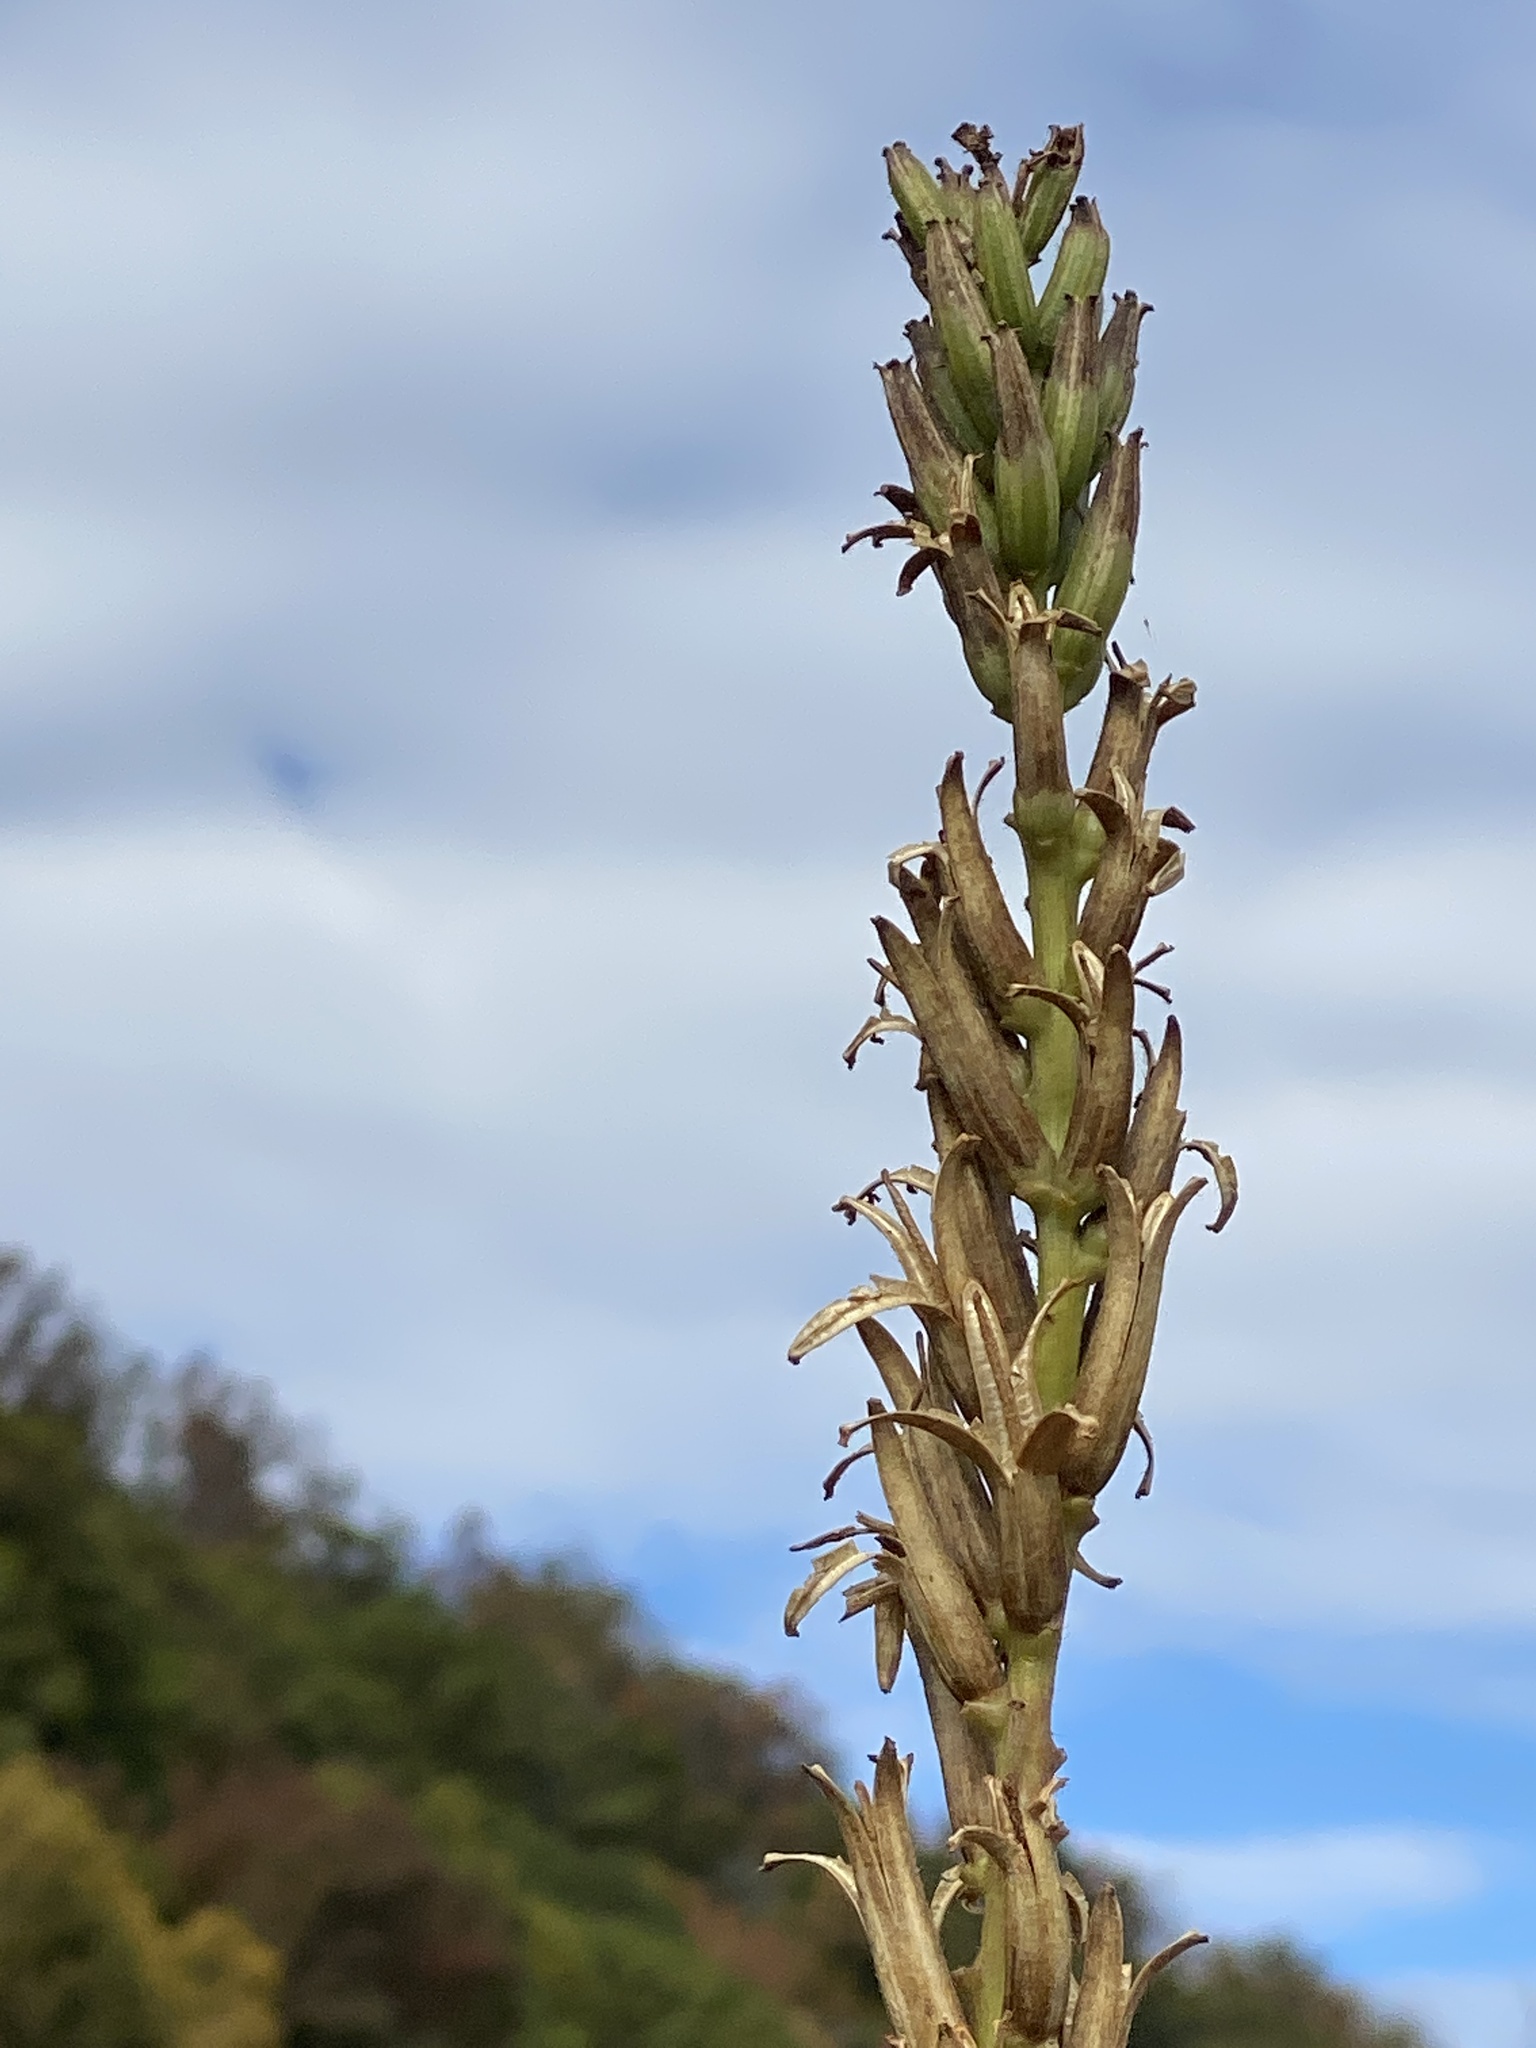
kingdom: Plantae
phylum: Tracheophyta
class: Magnoliopsida
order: Myrtales
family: Onagraceae
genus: Oenothera
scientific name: Oenothera biennis
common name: Common evening-primrose
